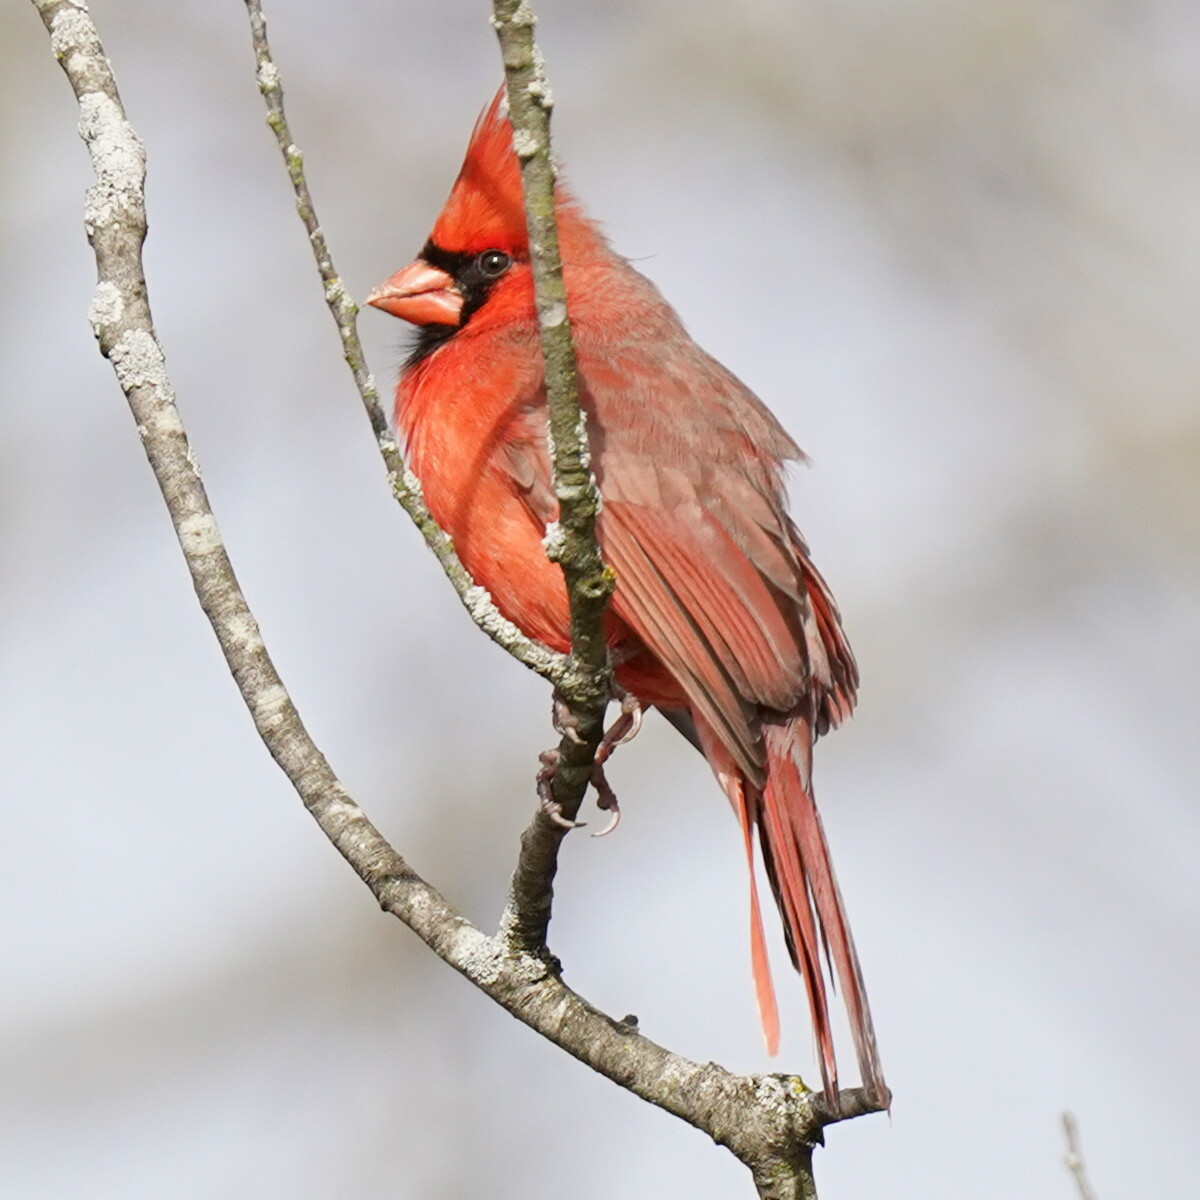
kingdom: Animalia
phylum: Chordata
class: Aves
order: Passeriformes
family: Cardinalidae
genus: Cardinalis
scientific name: Cardinalis cardinalis
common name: Northern cardinal
